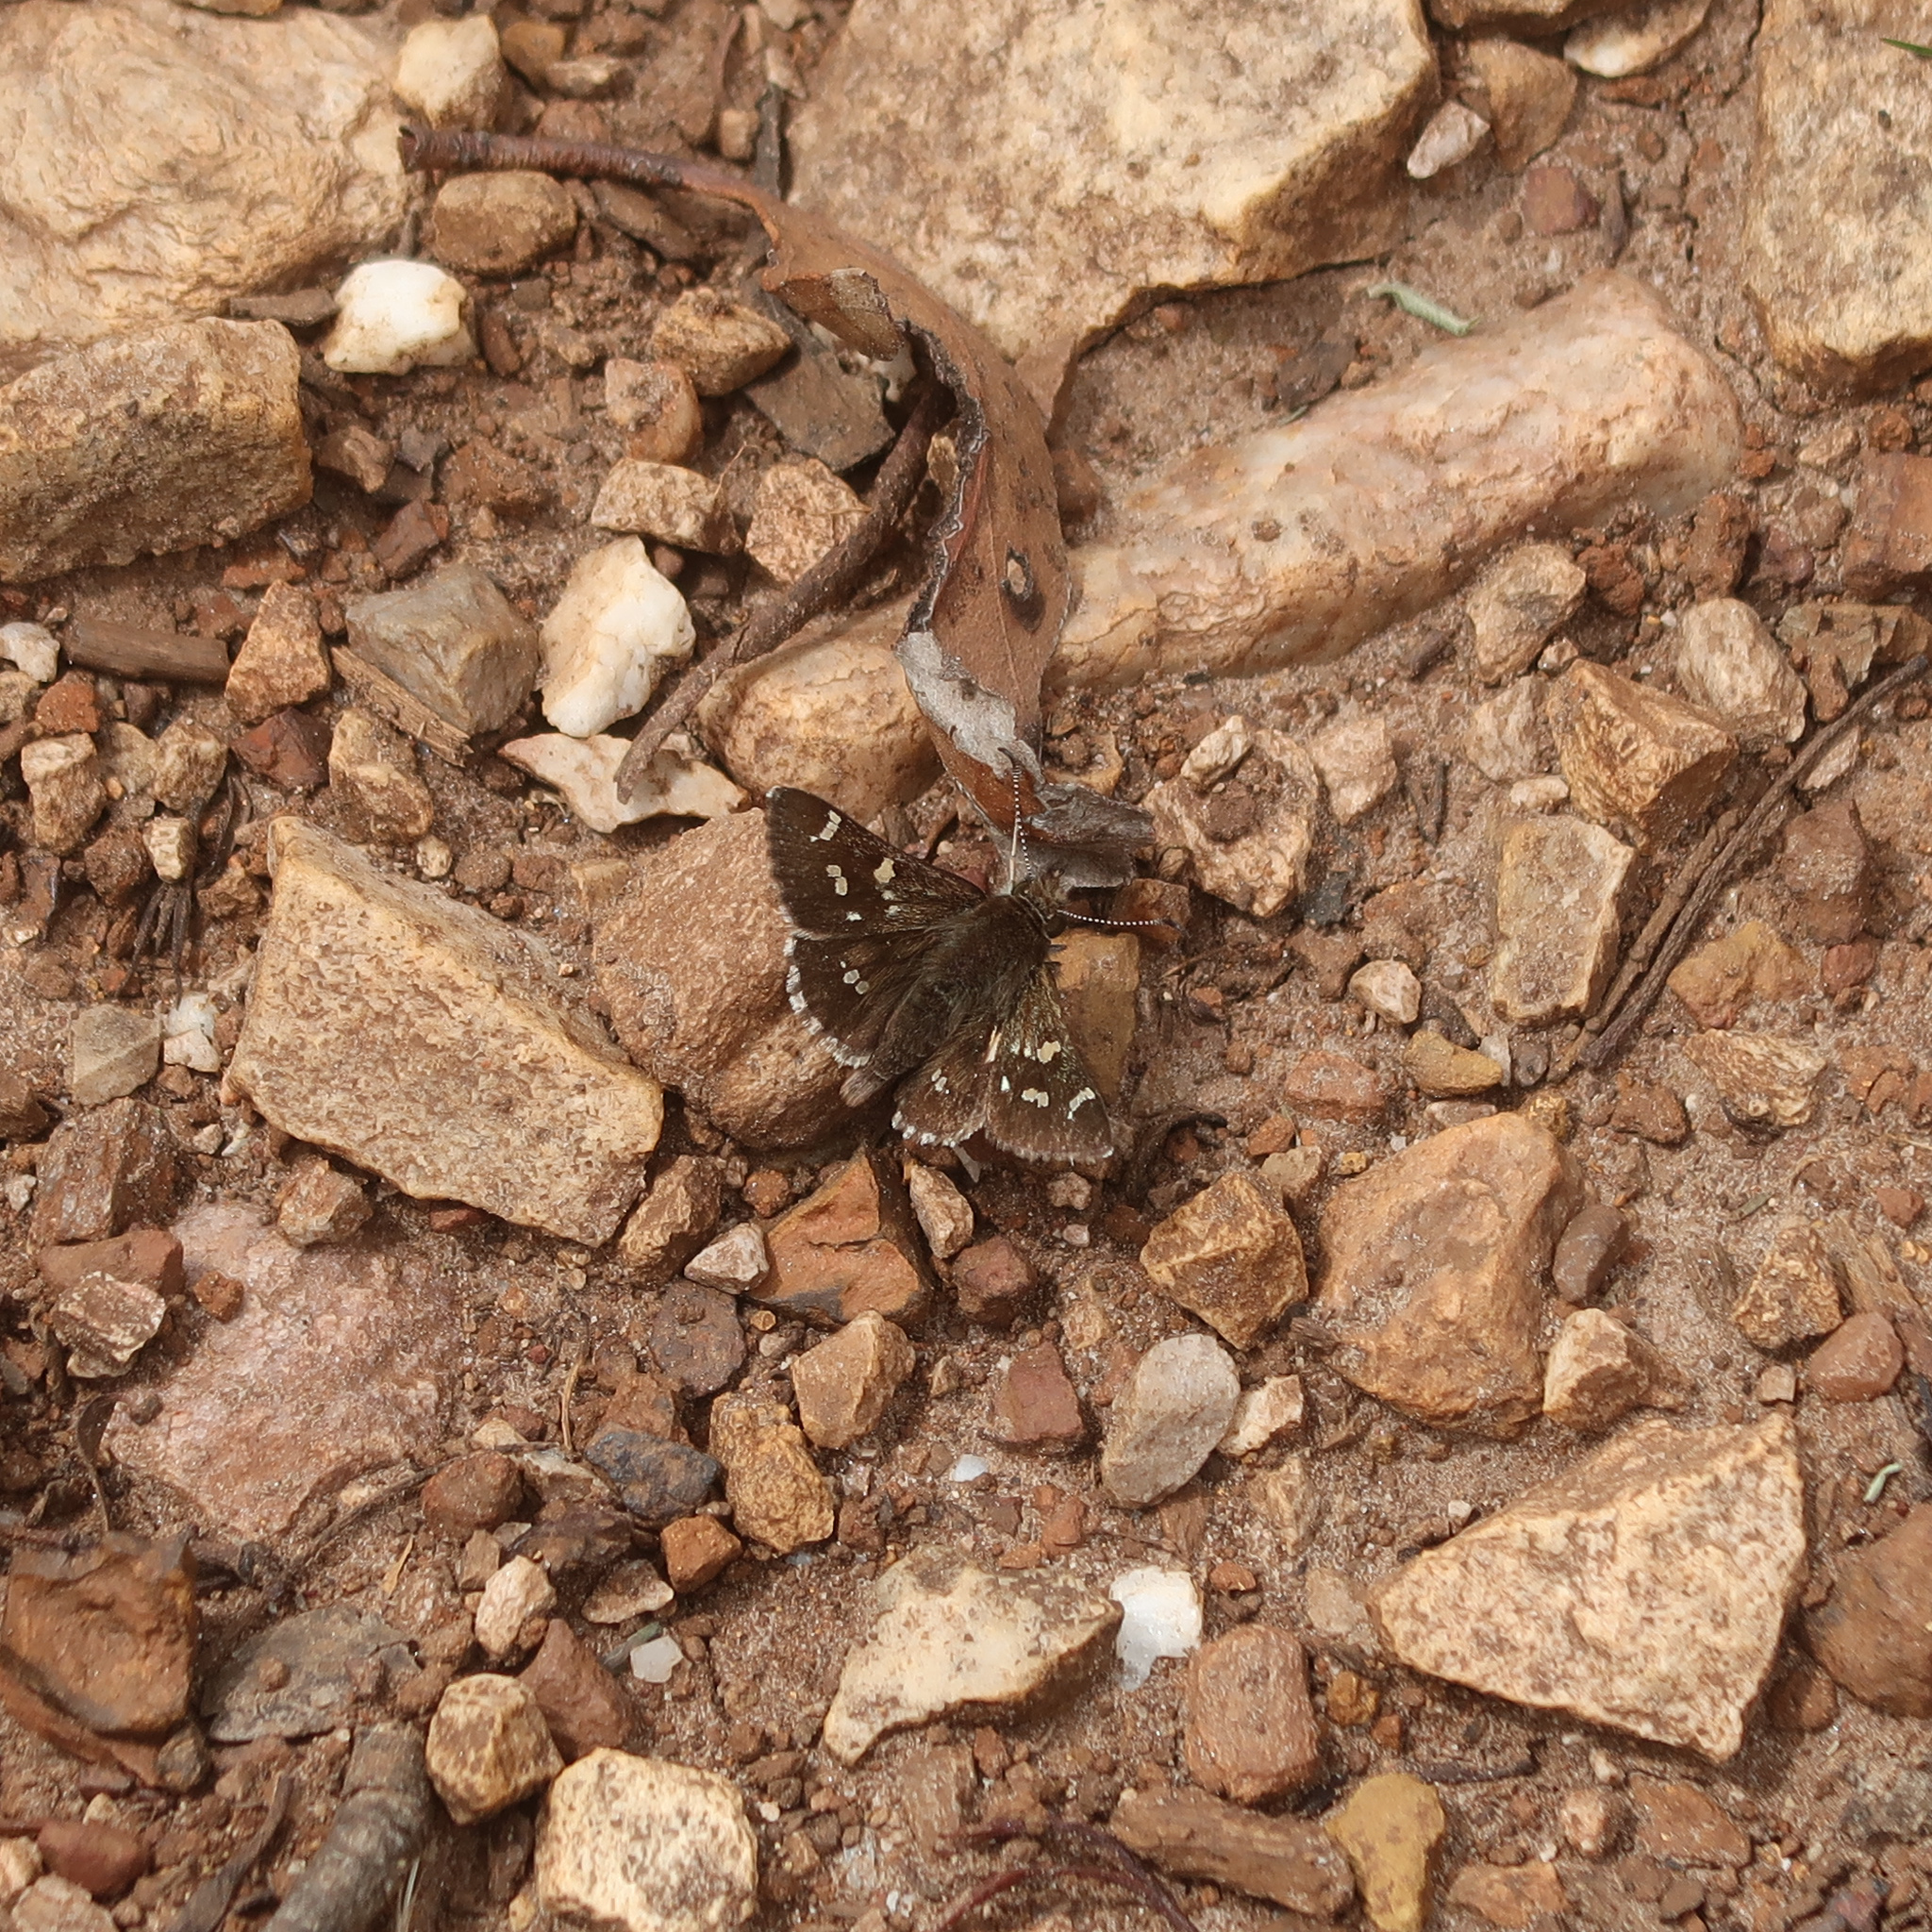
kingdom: Animalia
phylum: Arthropoda
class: Insecta
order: Lepidoptera
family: Hesperiidae
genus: Pasma
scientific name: Pasma tasmanicus
